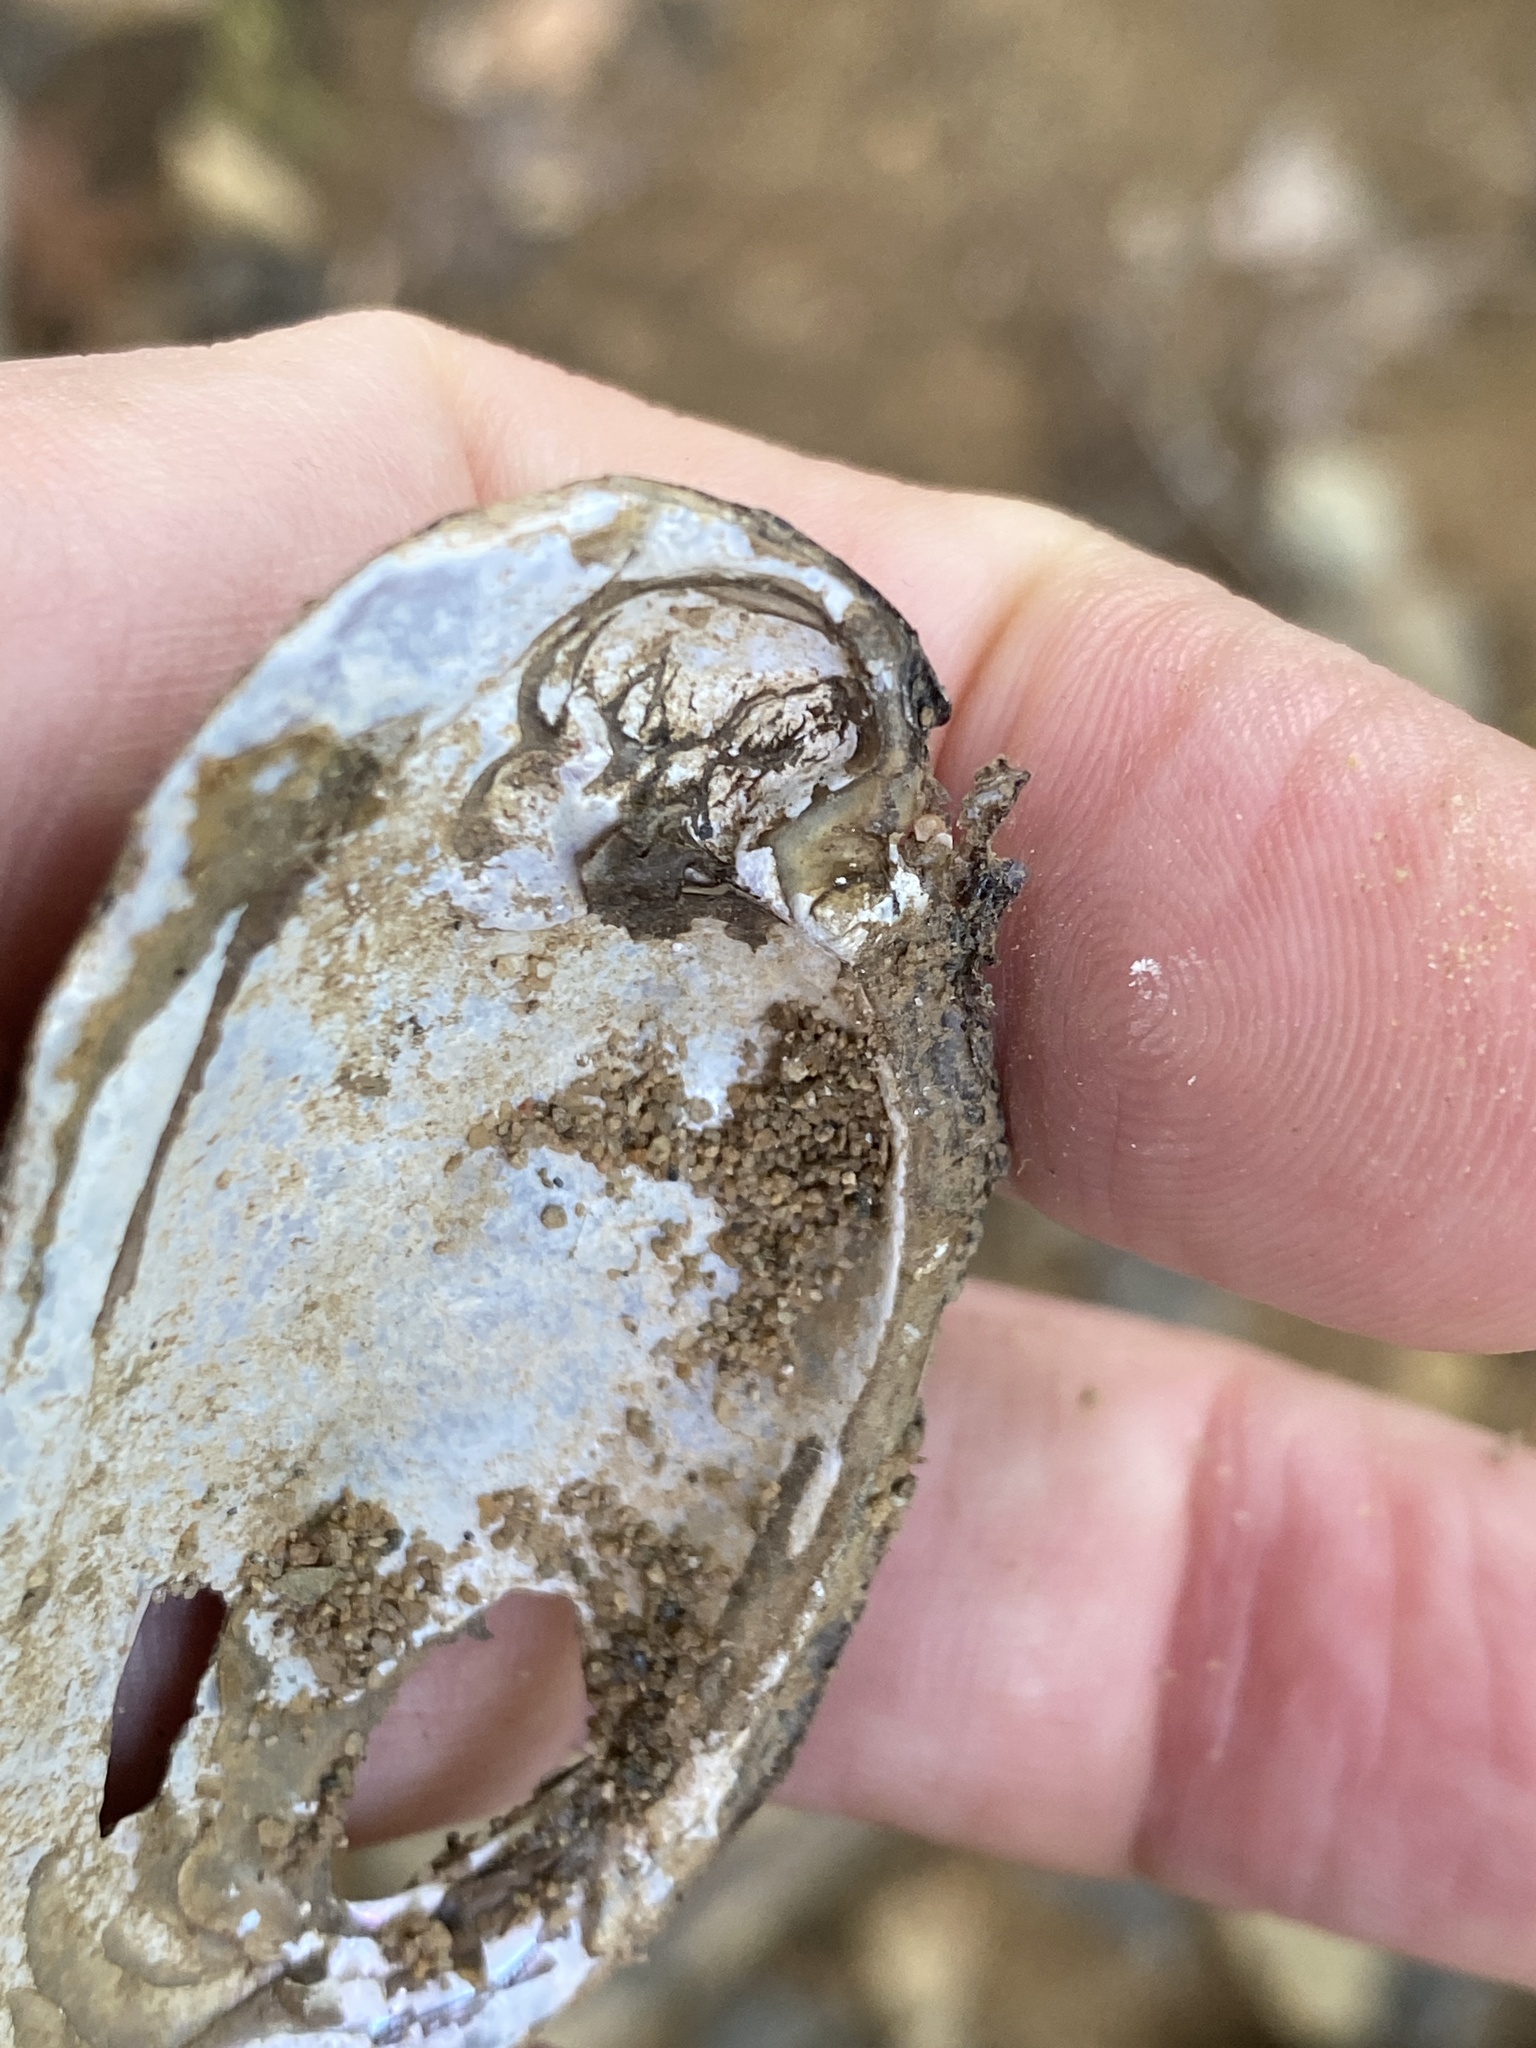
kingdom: Animalia
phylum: Mollusca
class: Bivalvia
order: Unionida
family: Unionidae
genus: Elliptio
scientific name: Elliptio complanata
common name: Eastern elliptio
